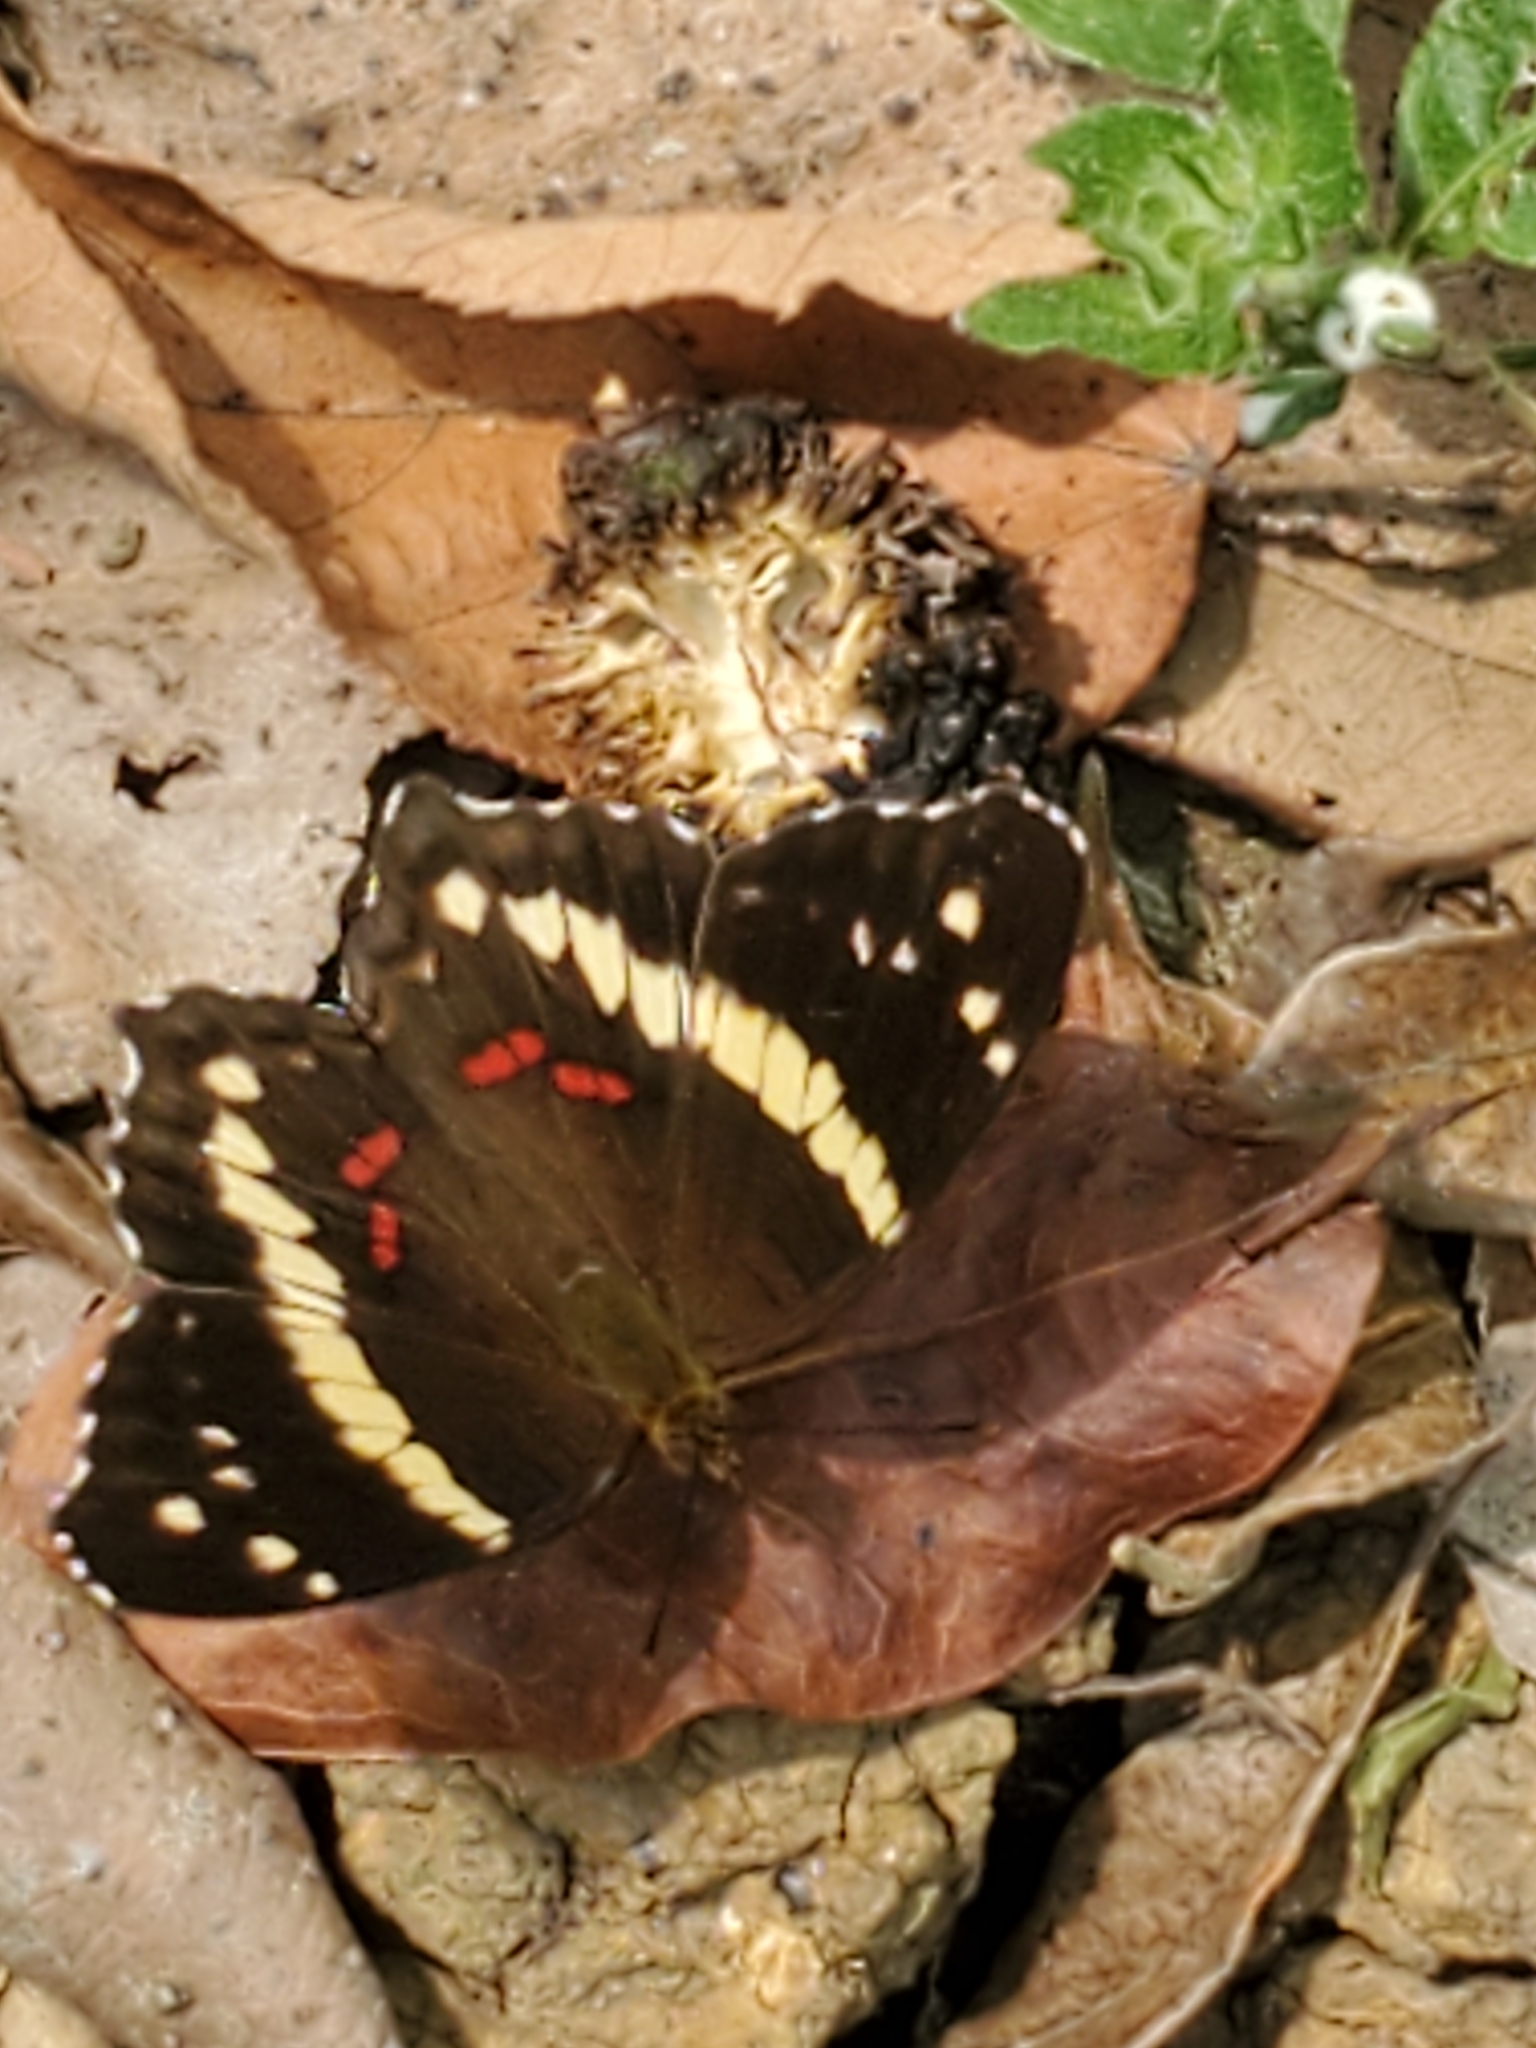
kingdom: Animalia
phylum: Arthropoda
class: Insecta
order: Lepidoptera
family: Nymphalidae
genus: Anartia
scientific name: Anartia fatima
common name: Banded peacock
